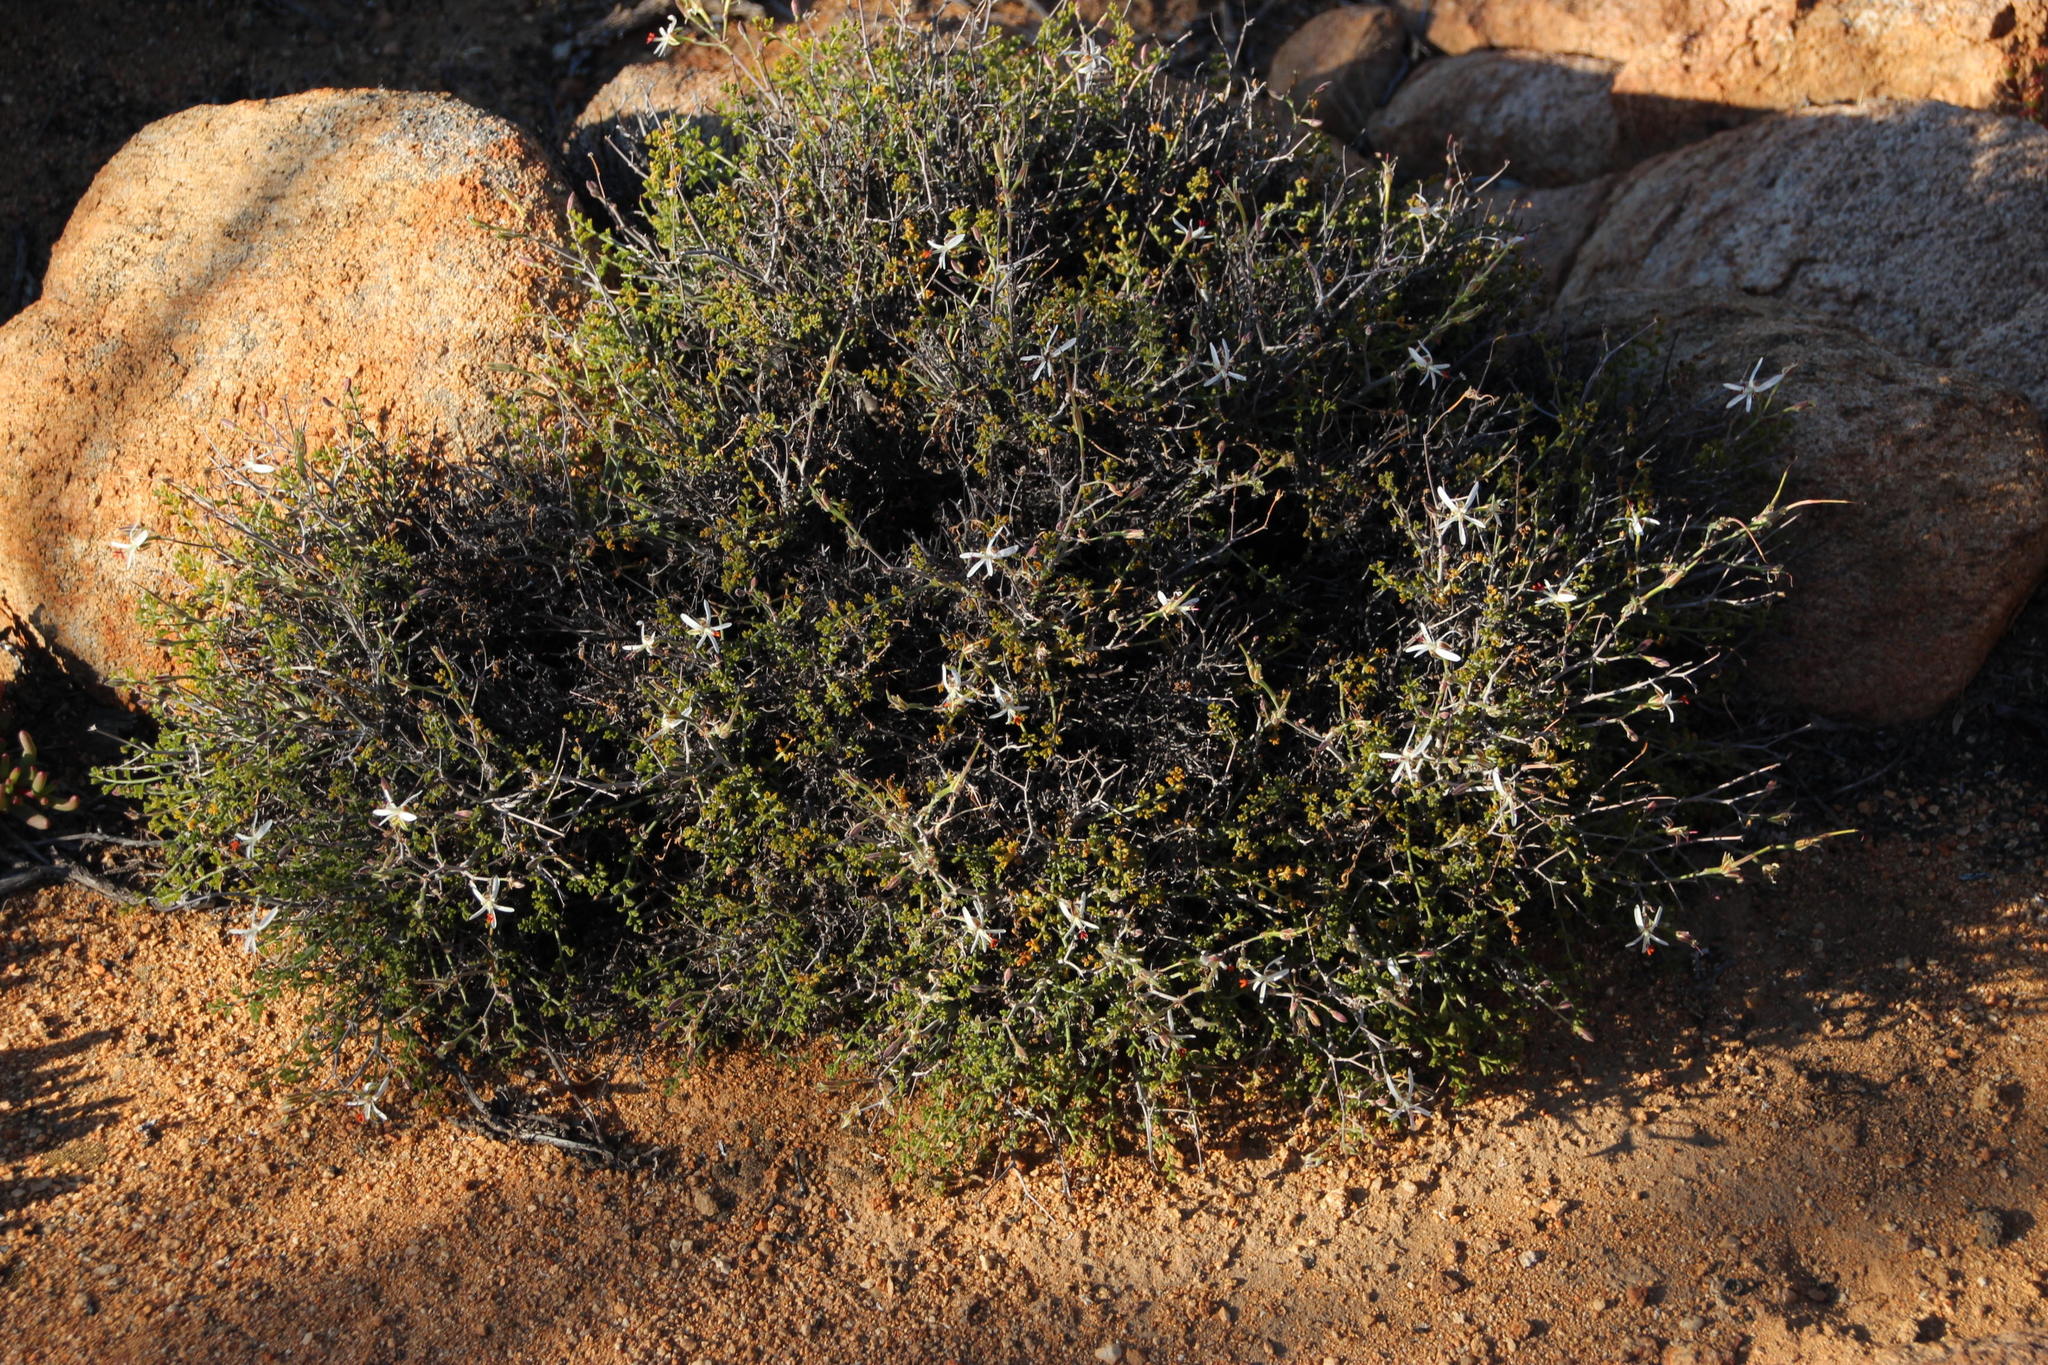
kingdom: Plantae
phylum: Tracheophyta
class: Magnoliopsida
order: Geraniales
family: Geraniaceae
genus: Pelargonium
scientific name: Pelargonium dasyphyllum
